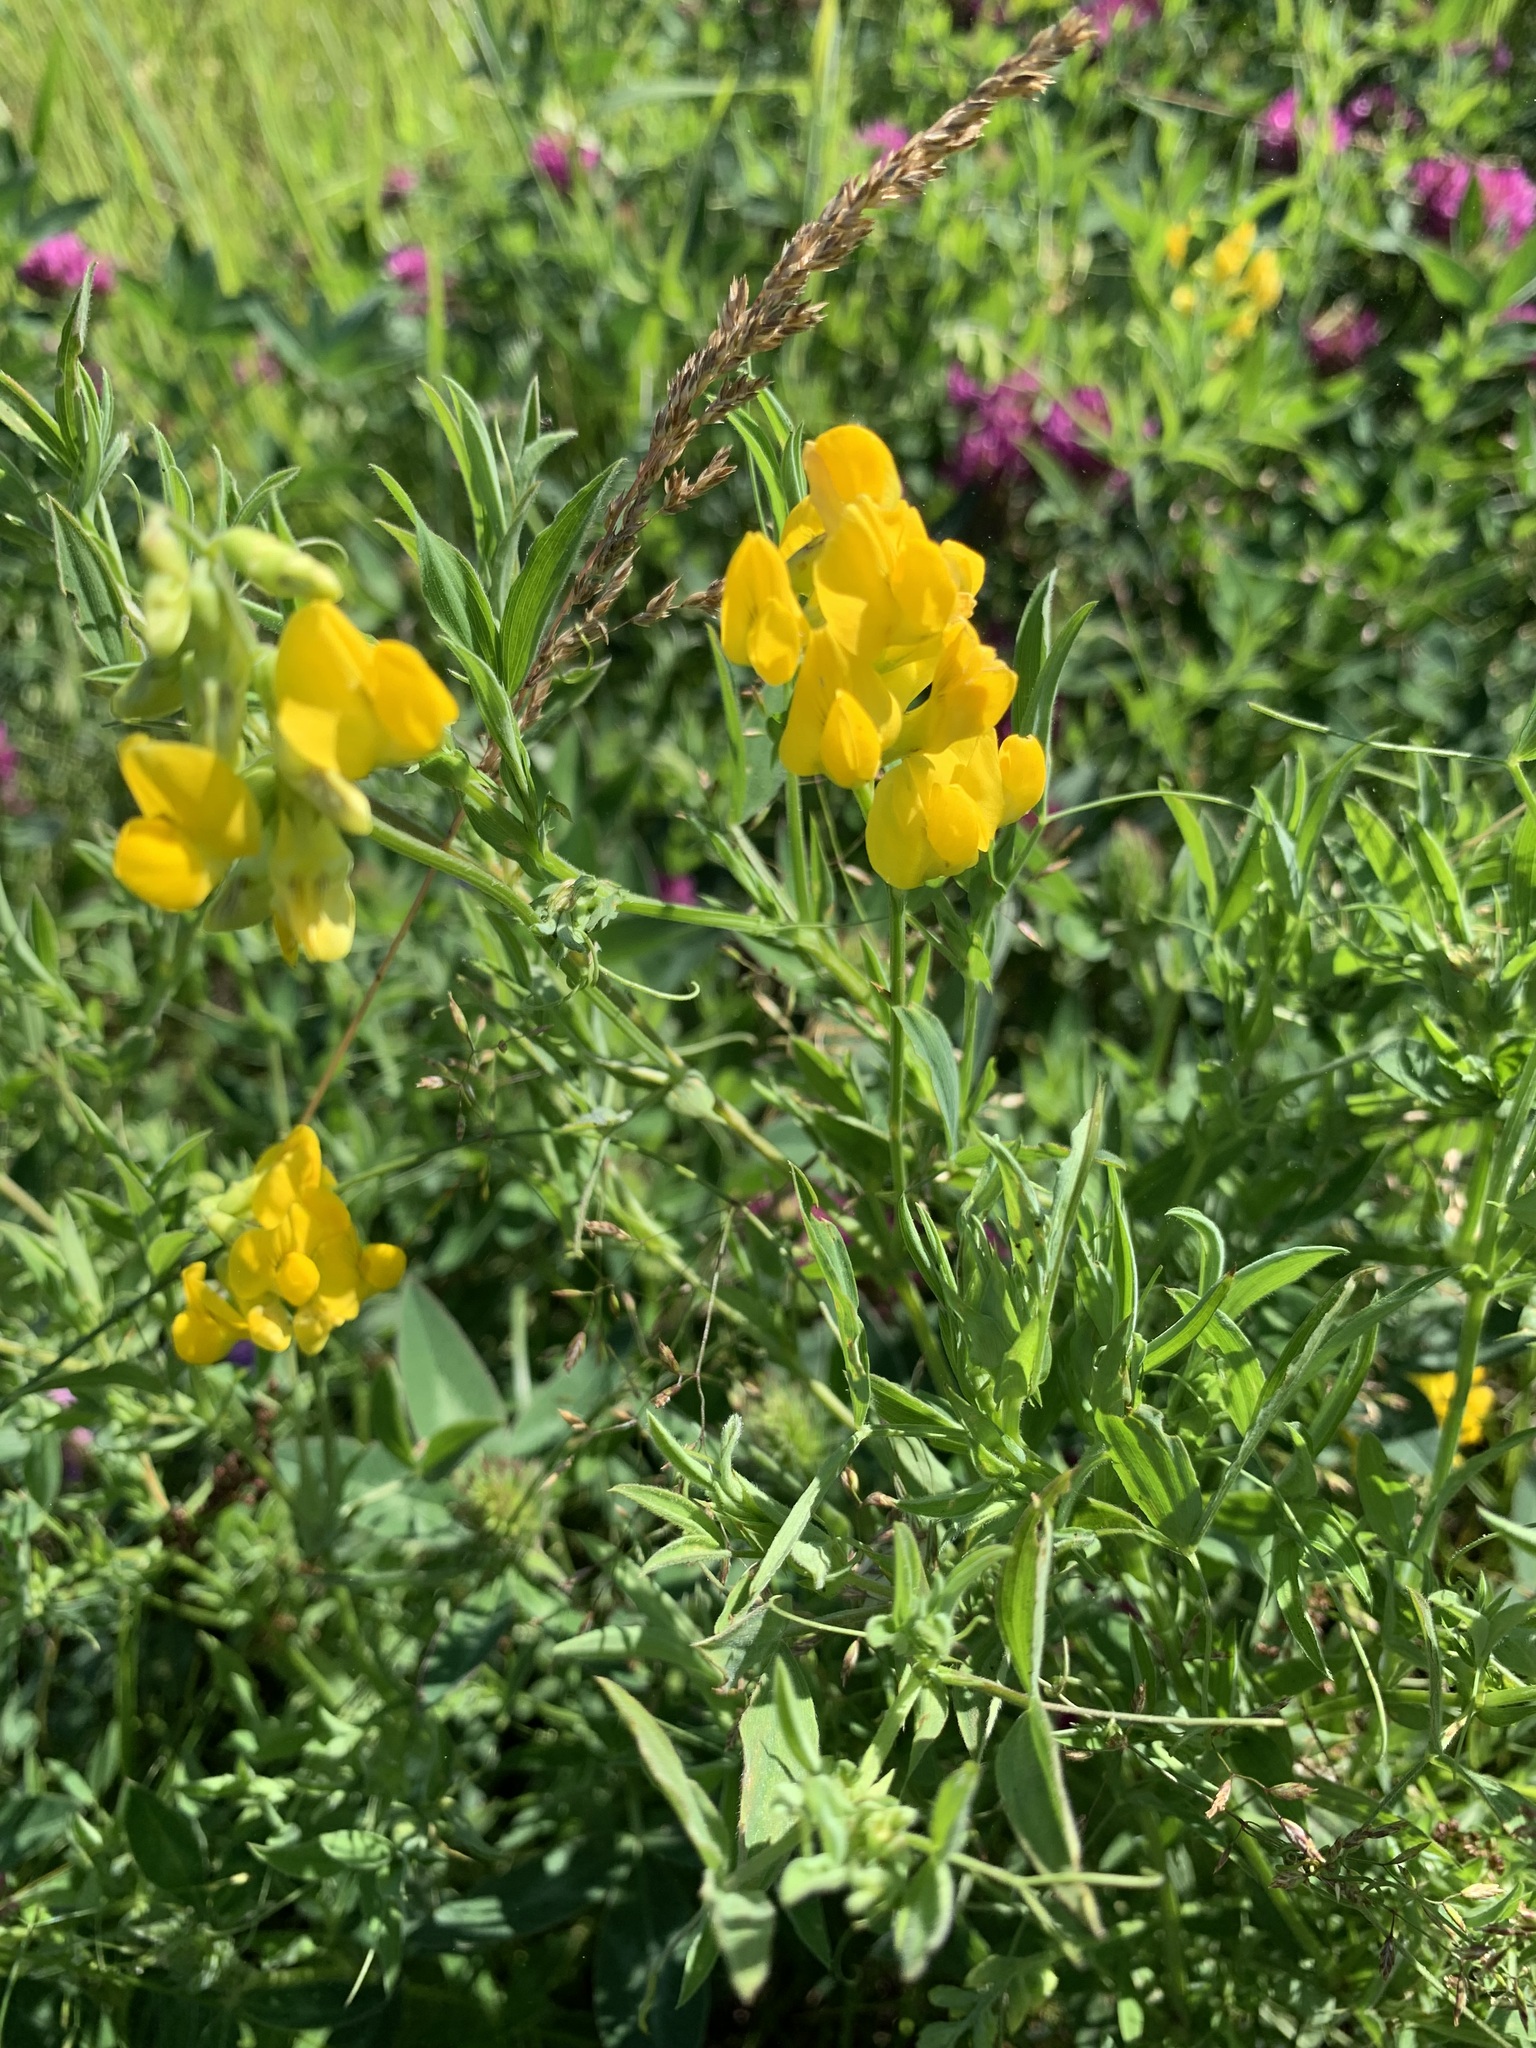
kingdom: Plantae
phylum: Tracheophyta
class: Magnoliopsida
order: Fabales
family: Fabaceae
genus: Lathyrus
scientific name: Lathyrus pratensis
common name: Meadow vetchling
